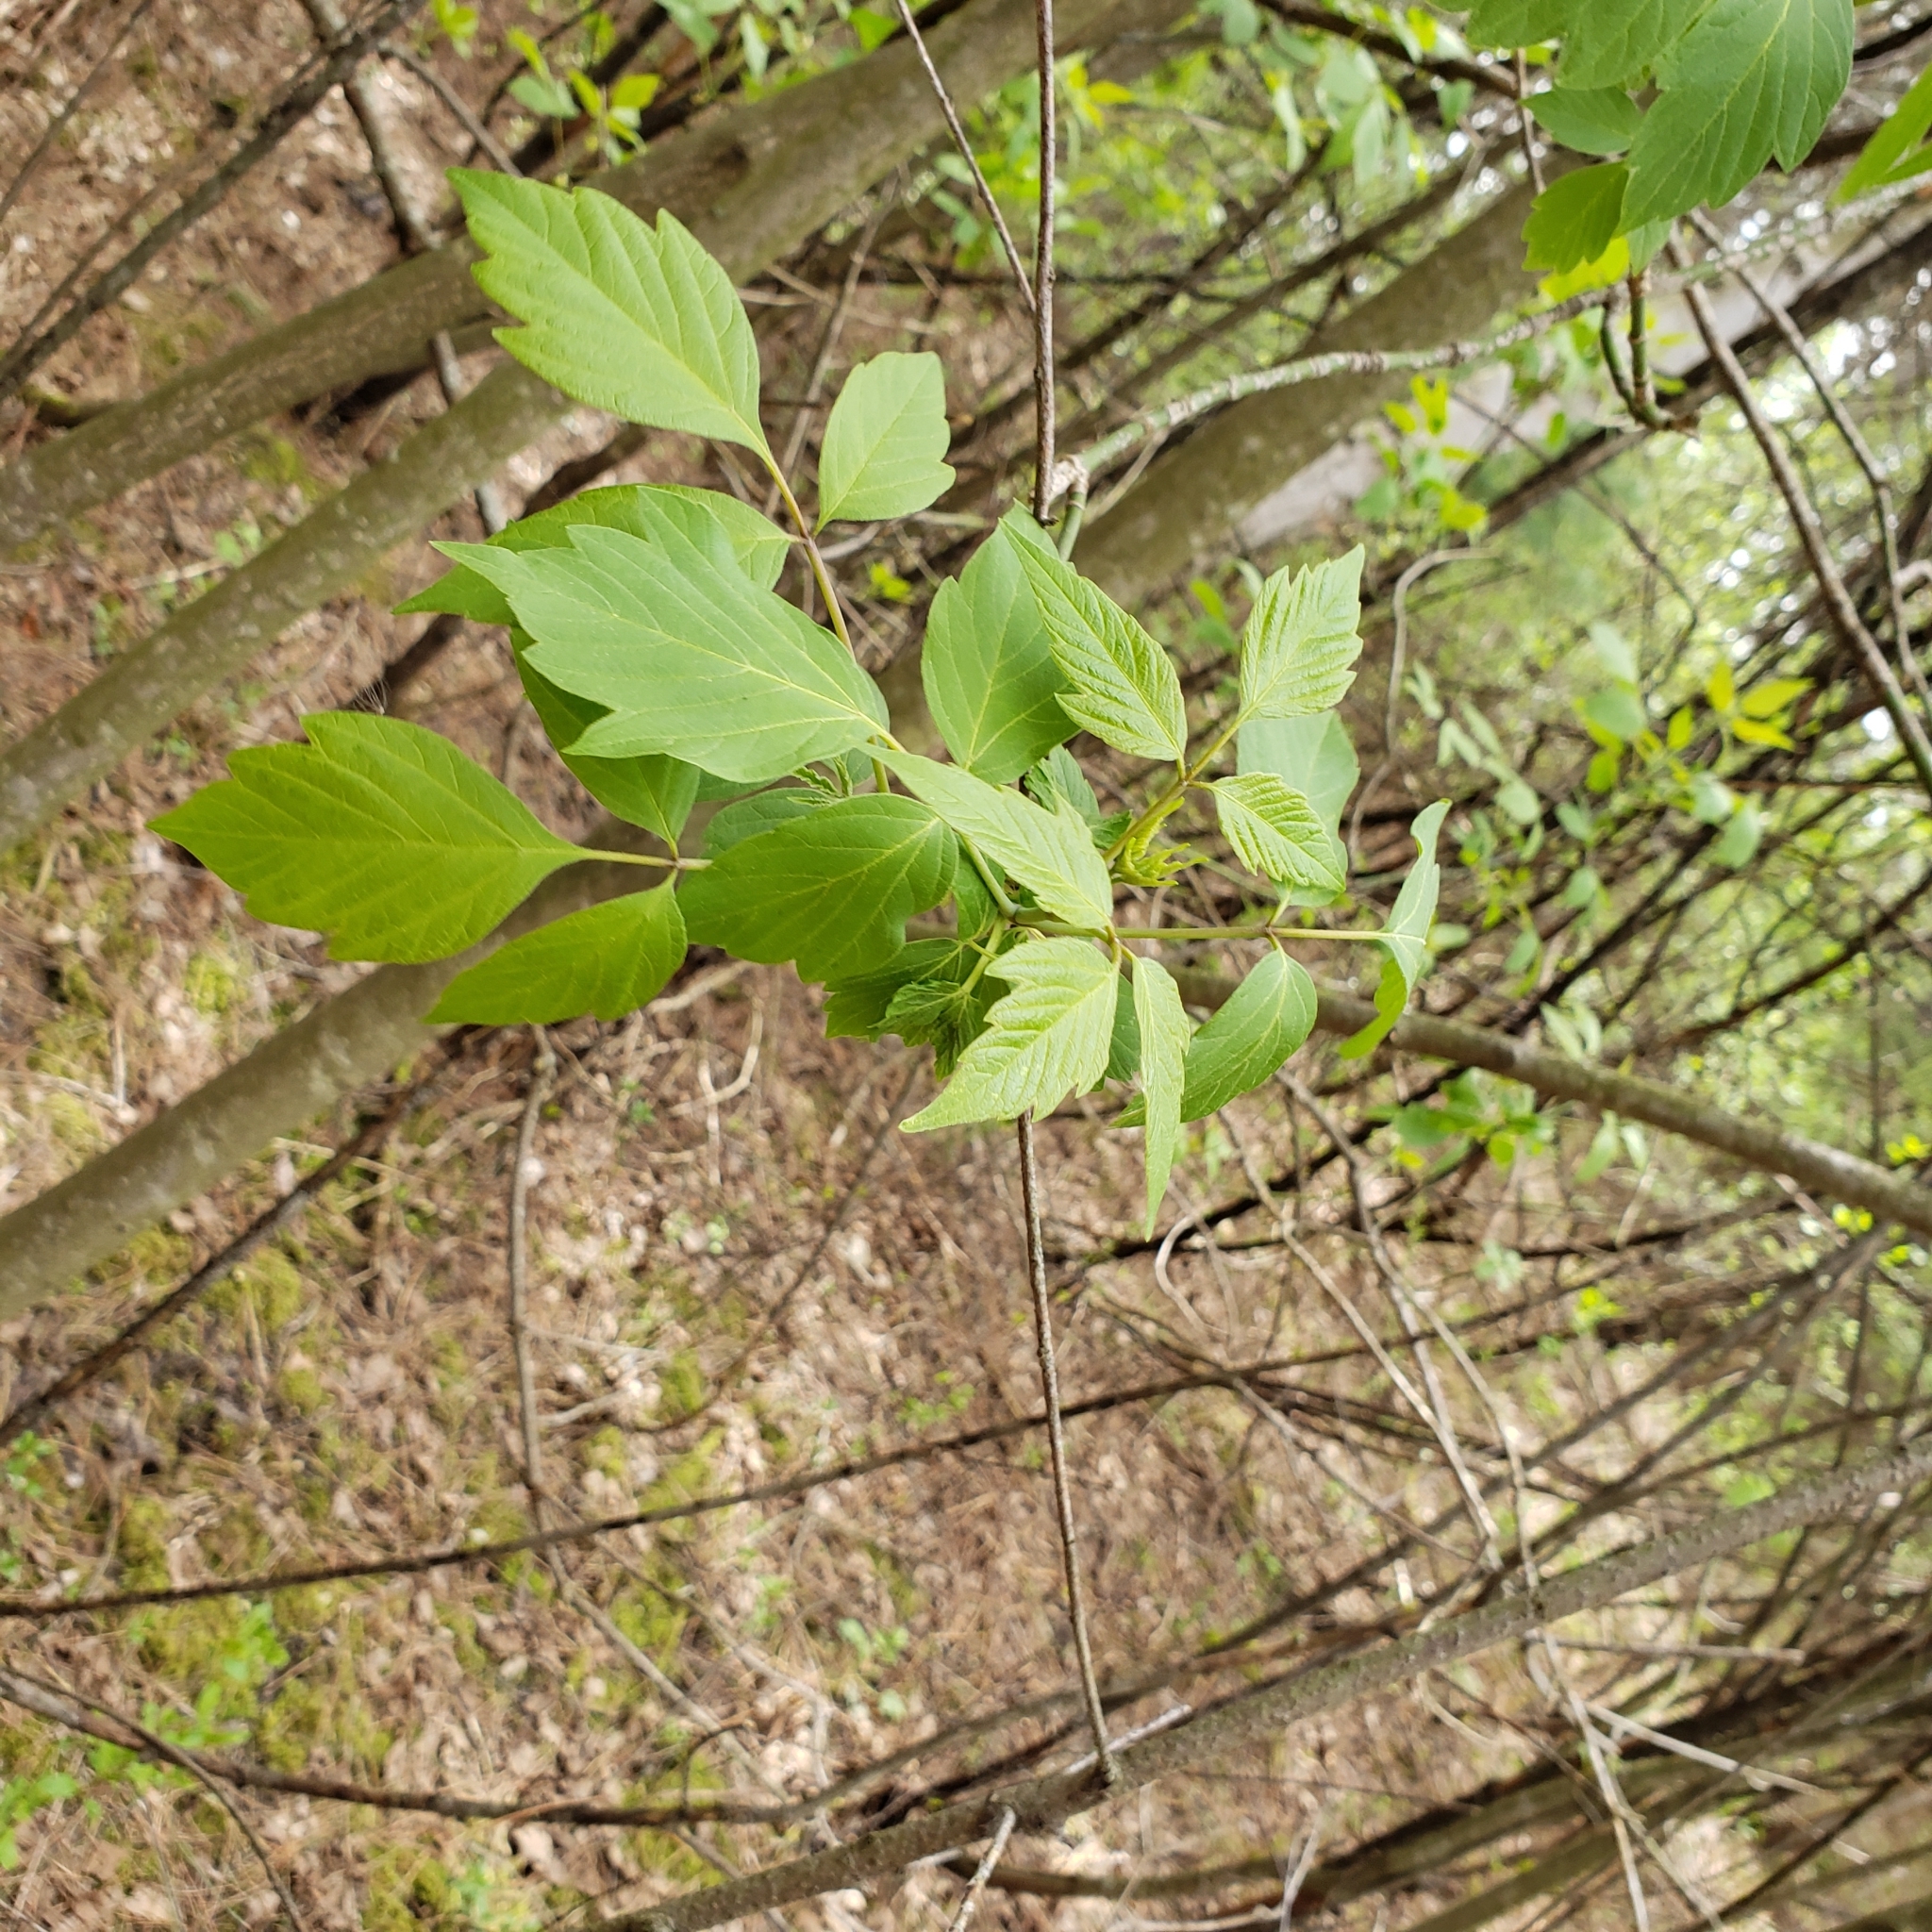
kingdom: Plantae
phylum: Tracheophyta
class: Magnoliopsida
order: Sapindales
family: Sapindaceae
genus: Acer
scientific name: Acer negundo
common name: Ashleaf maple
